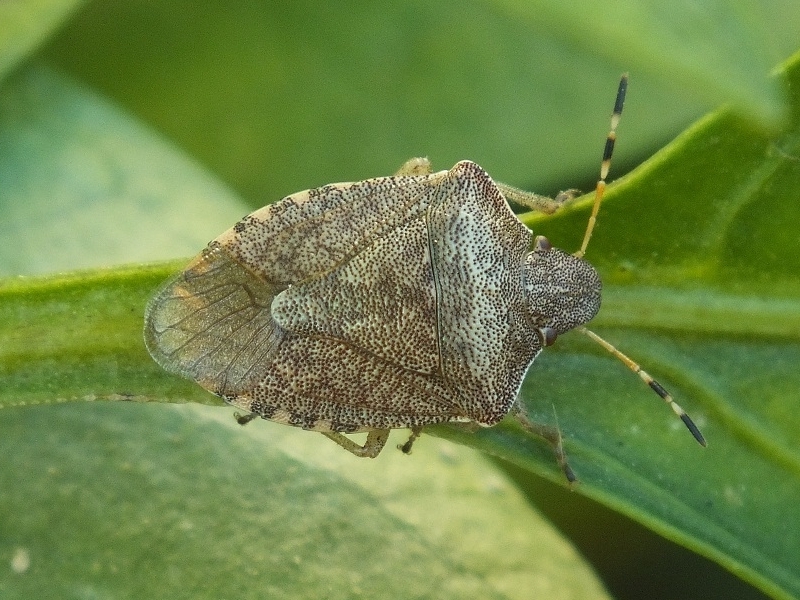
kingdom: Animalia
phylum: Arthropoda
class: Insecta
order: Hemiptera
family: Pentatomidae
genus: Holcostethus
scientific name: Holcostethus strictus
